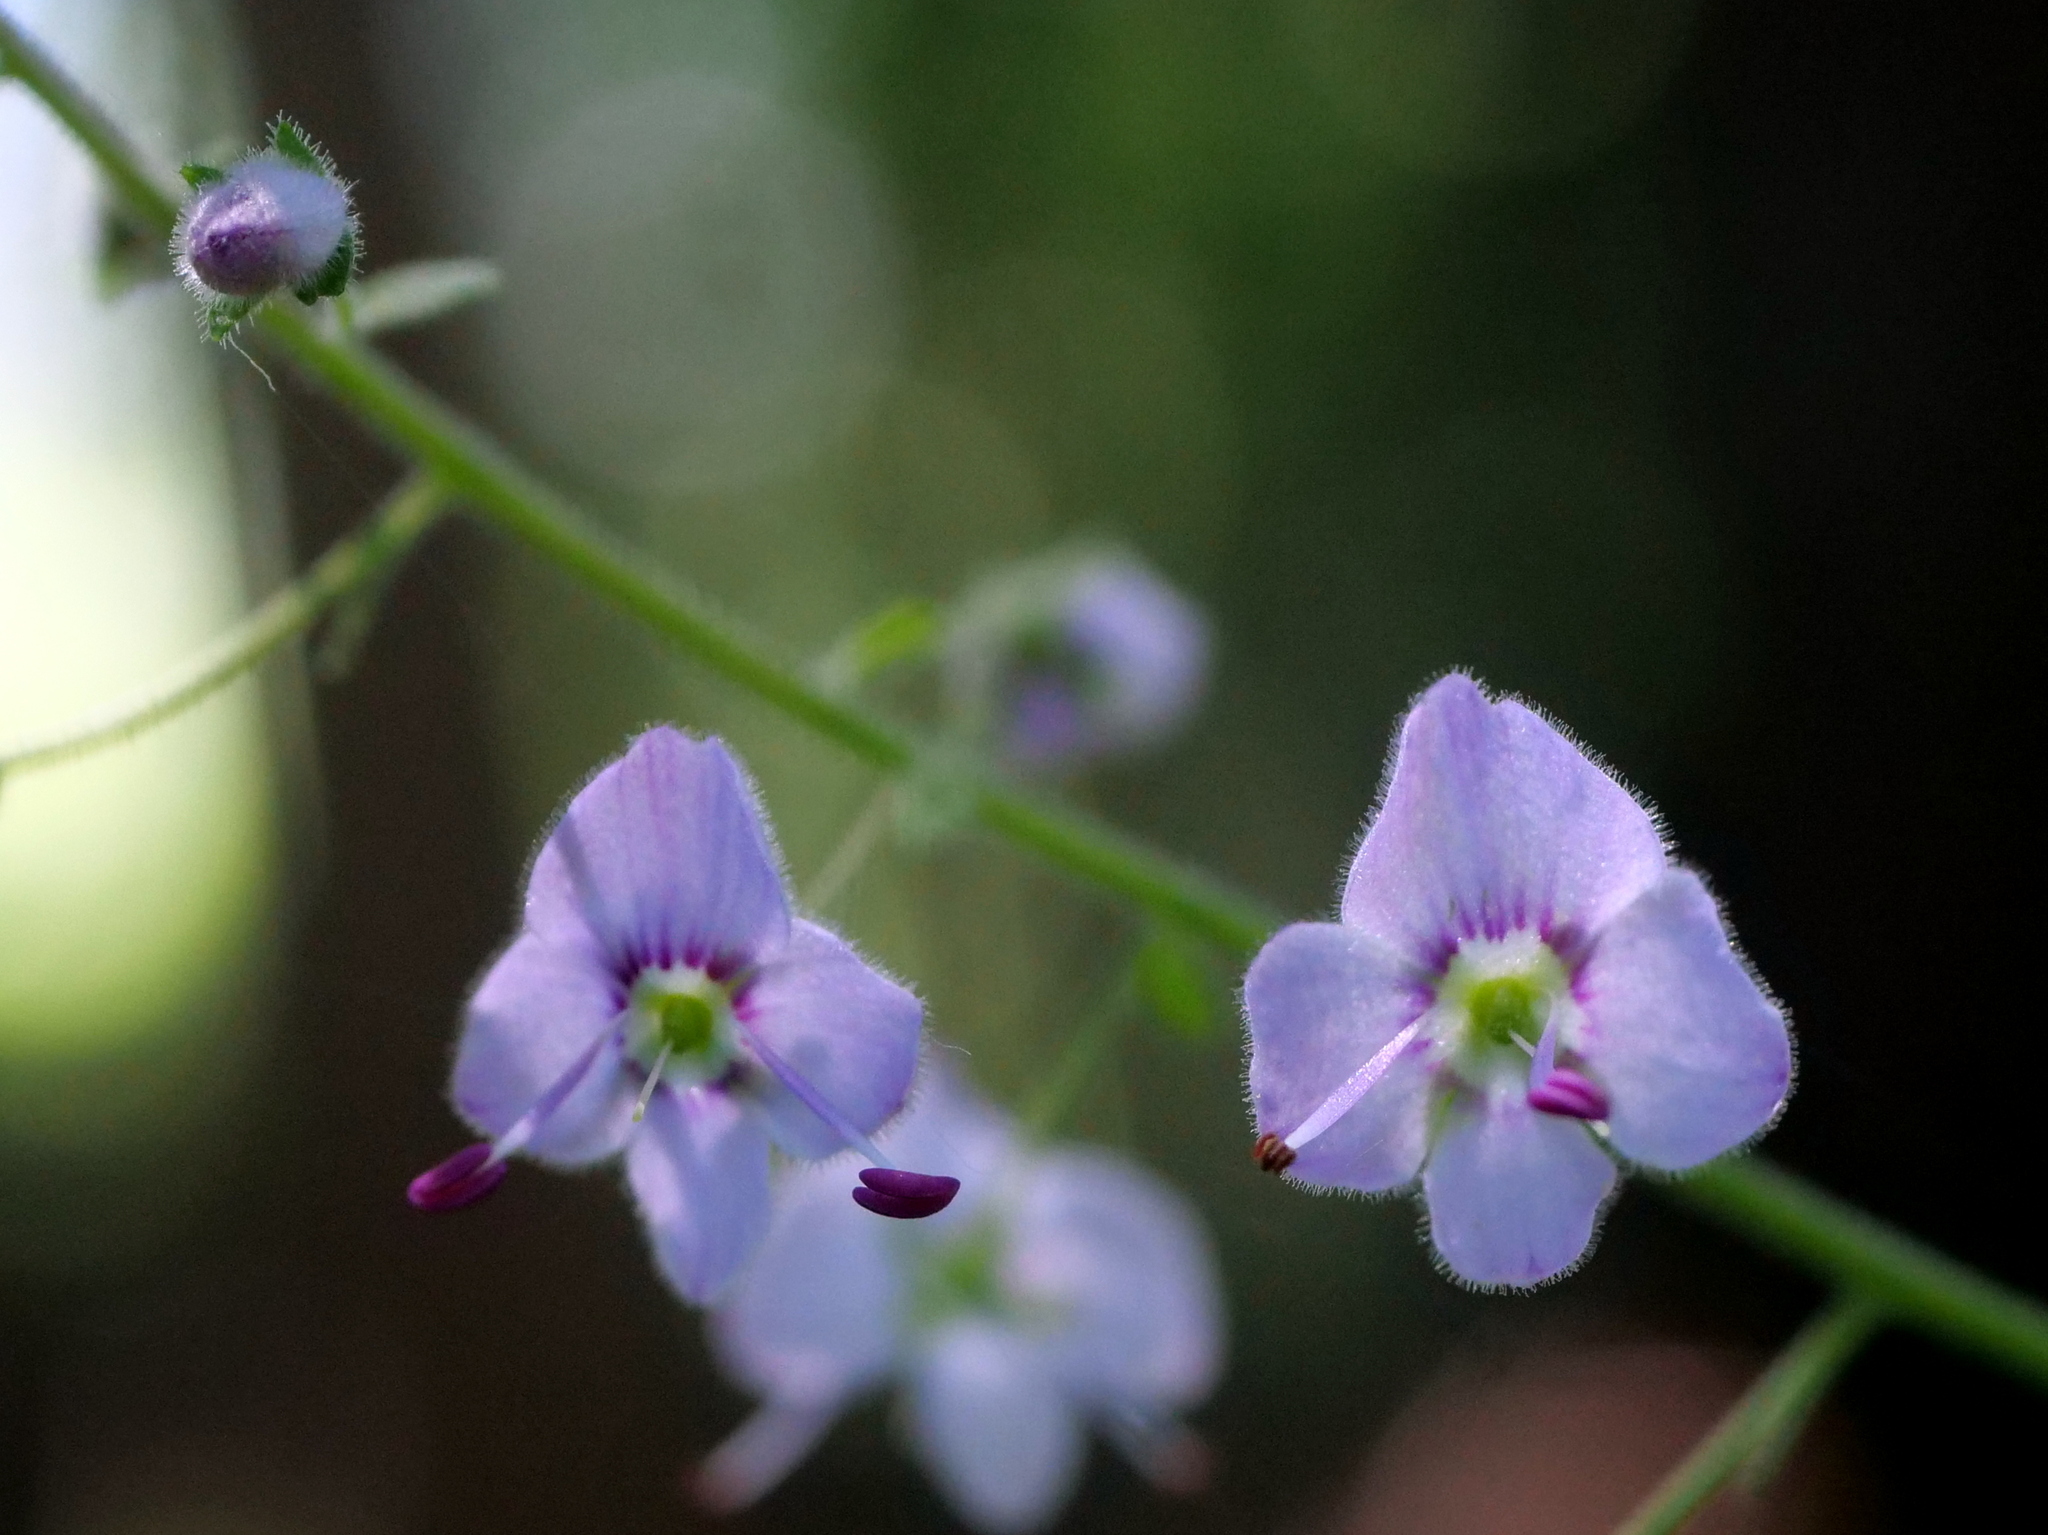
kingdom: Plantae
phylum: Tracheophyta
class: Magnoliopsida
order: Lamiales
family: Plantaginaceae
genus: Veronica
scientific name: Veronica urticifolia
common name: Nettle-leaf speedwell
